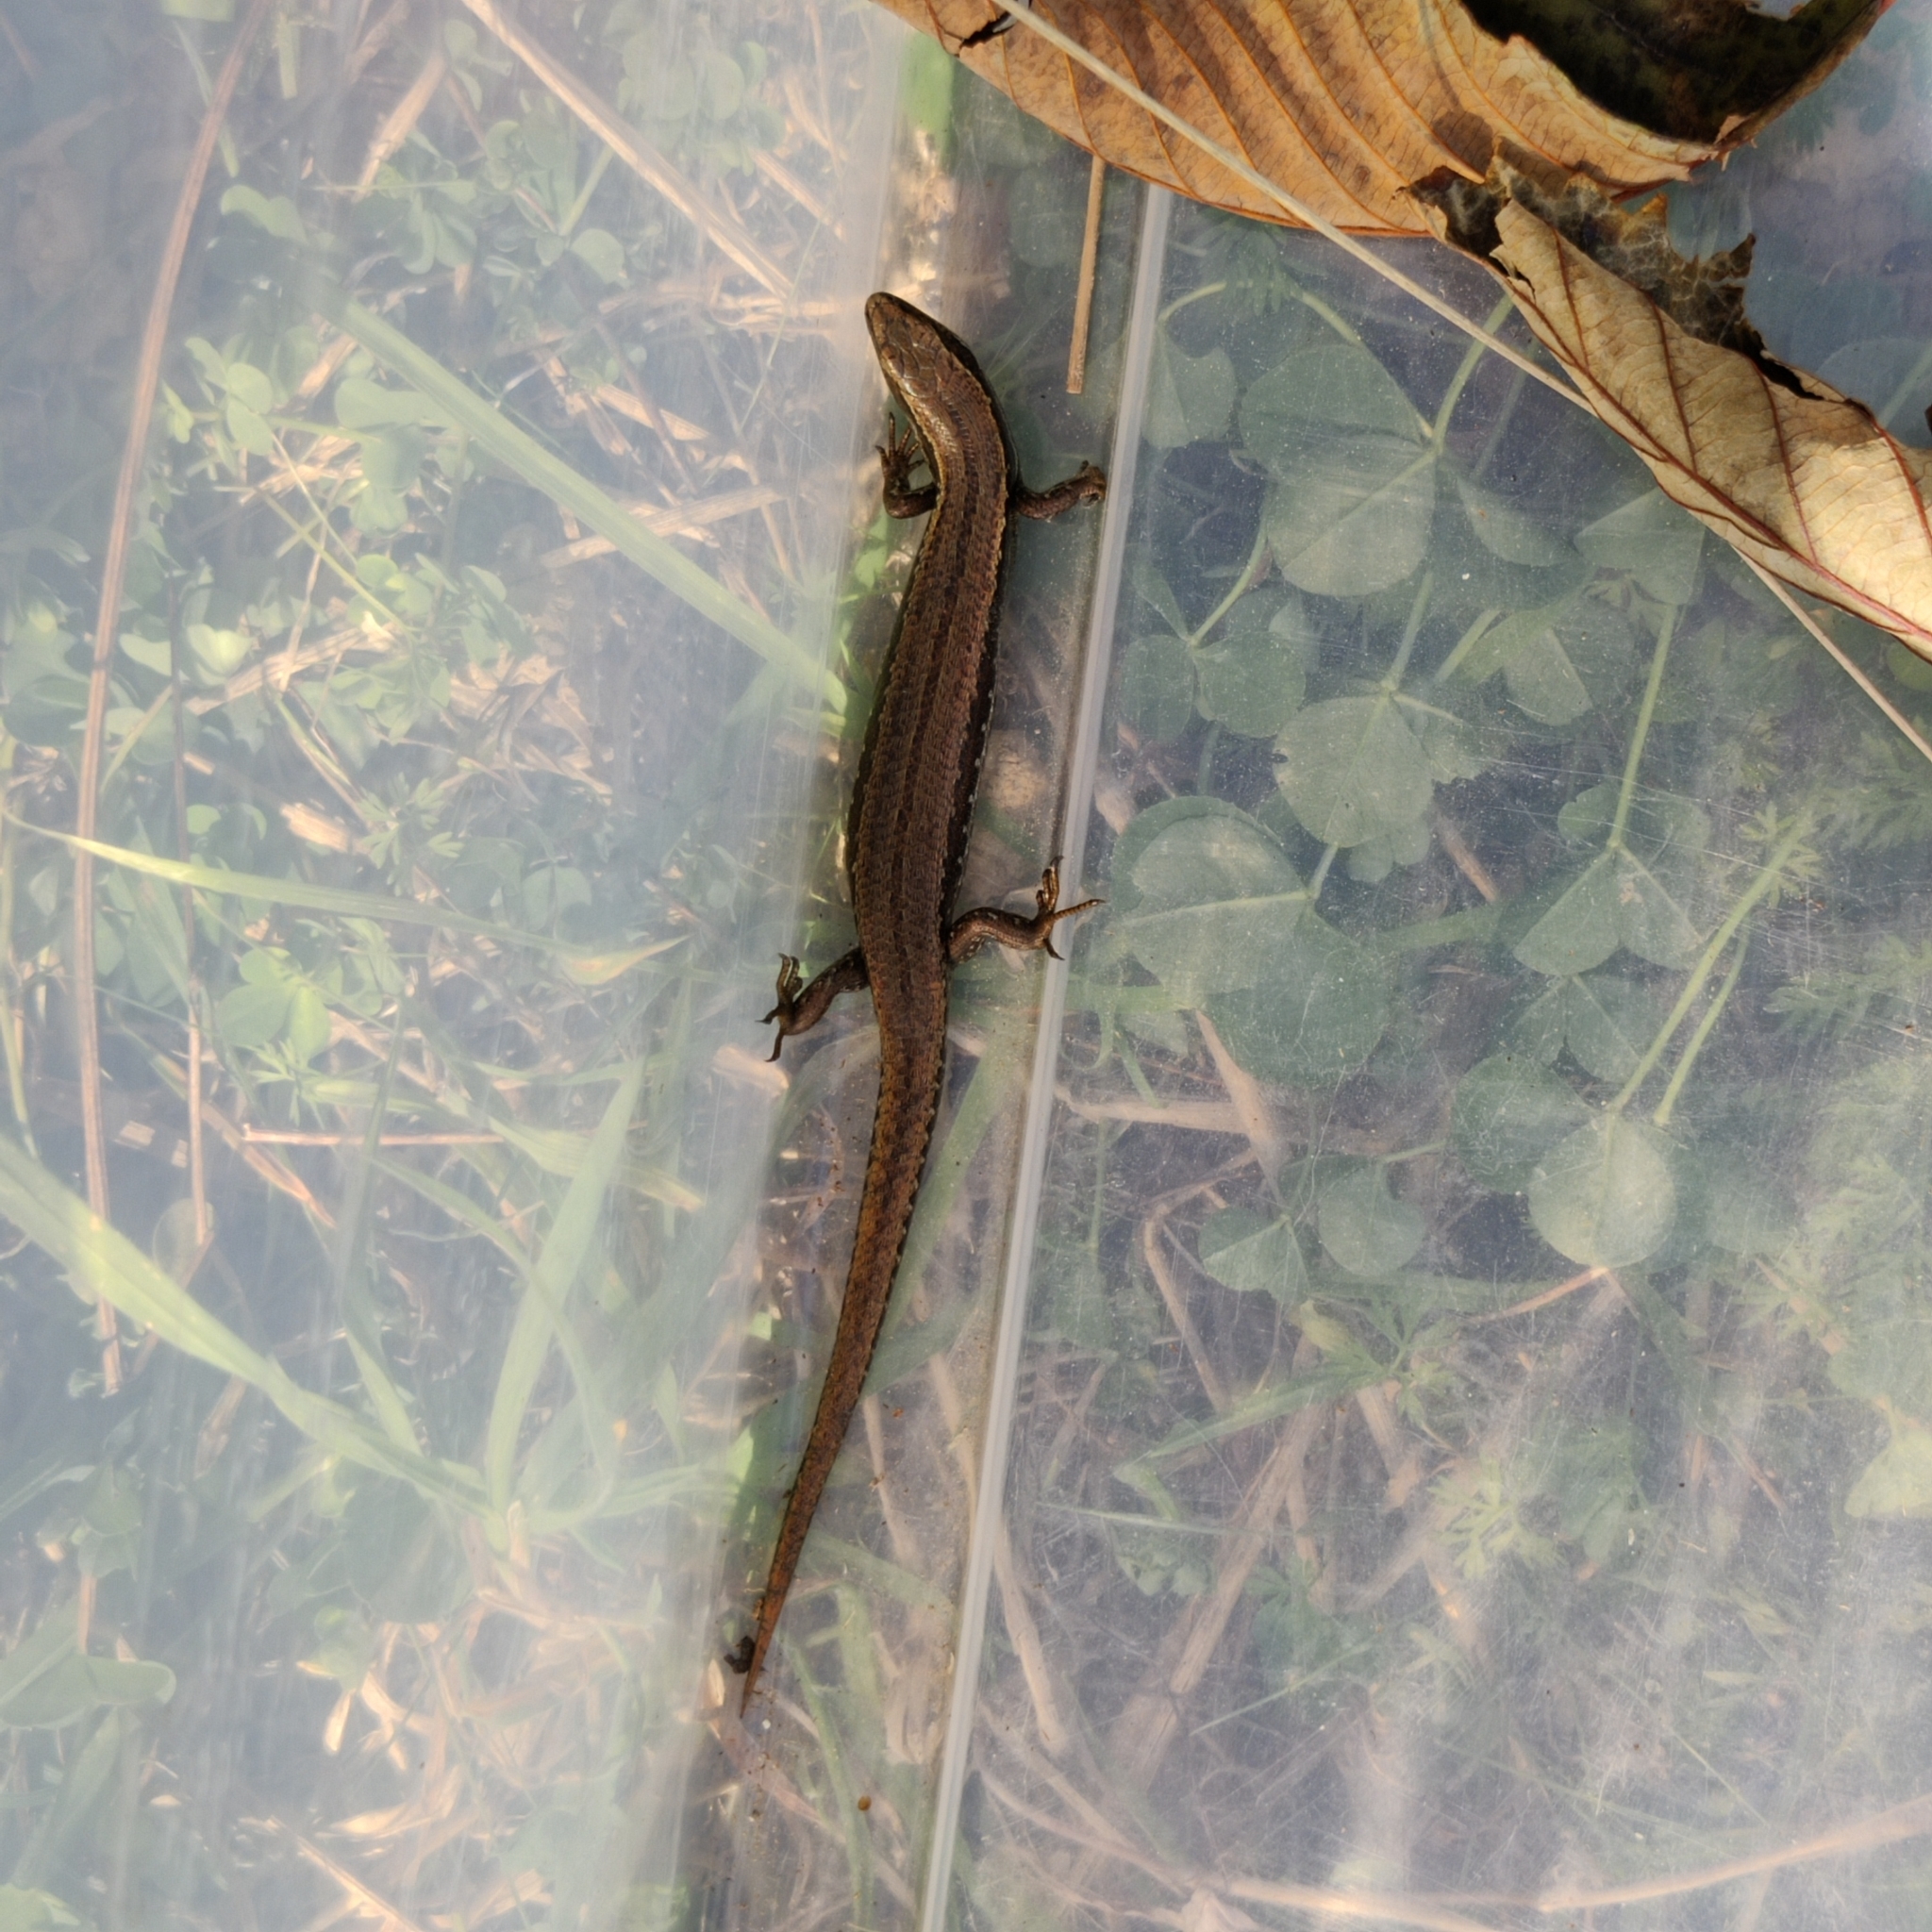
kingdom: Animalia
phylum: Chordata
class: Squamata
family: Scincidae
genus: Oligosoma
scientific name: Oligosoma polychroma
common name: Common new zealand skink
